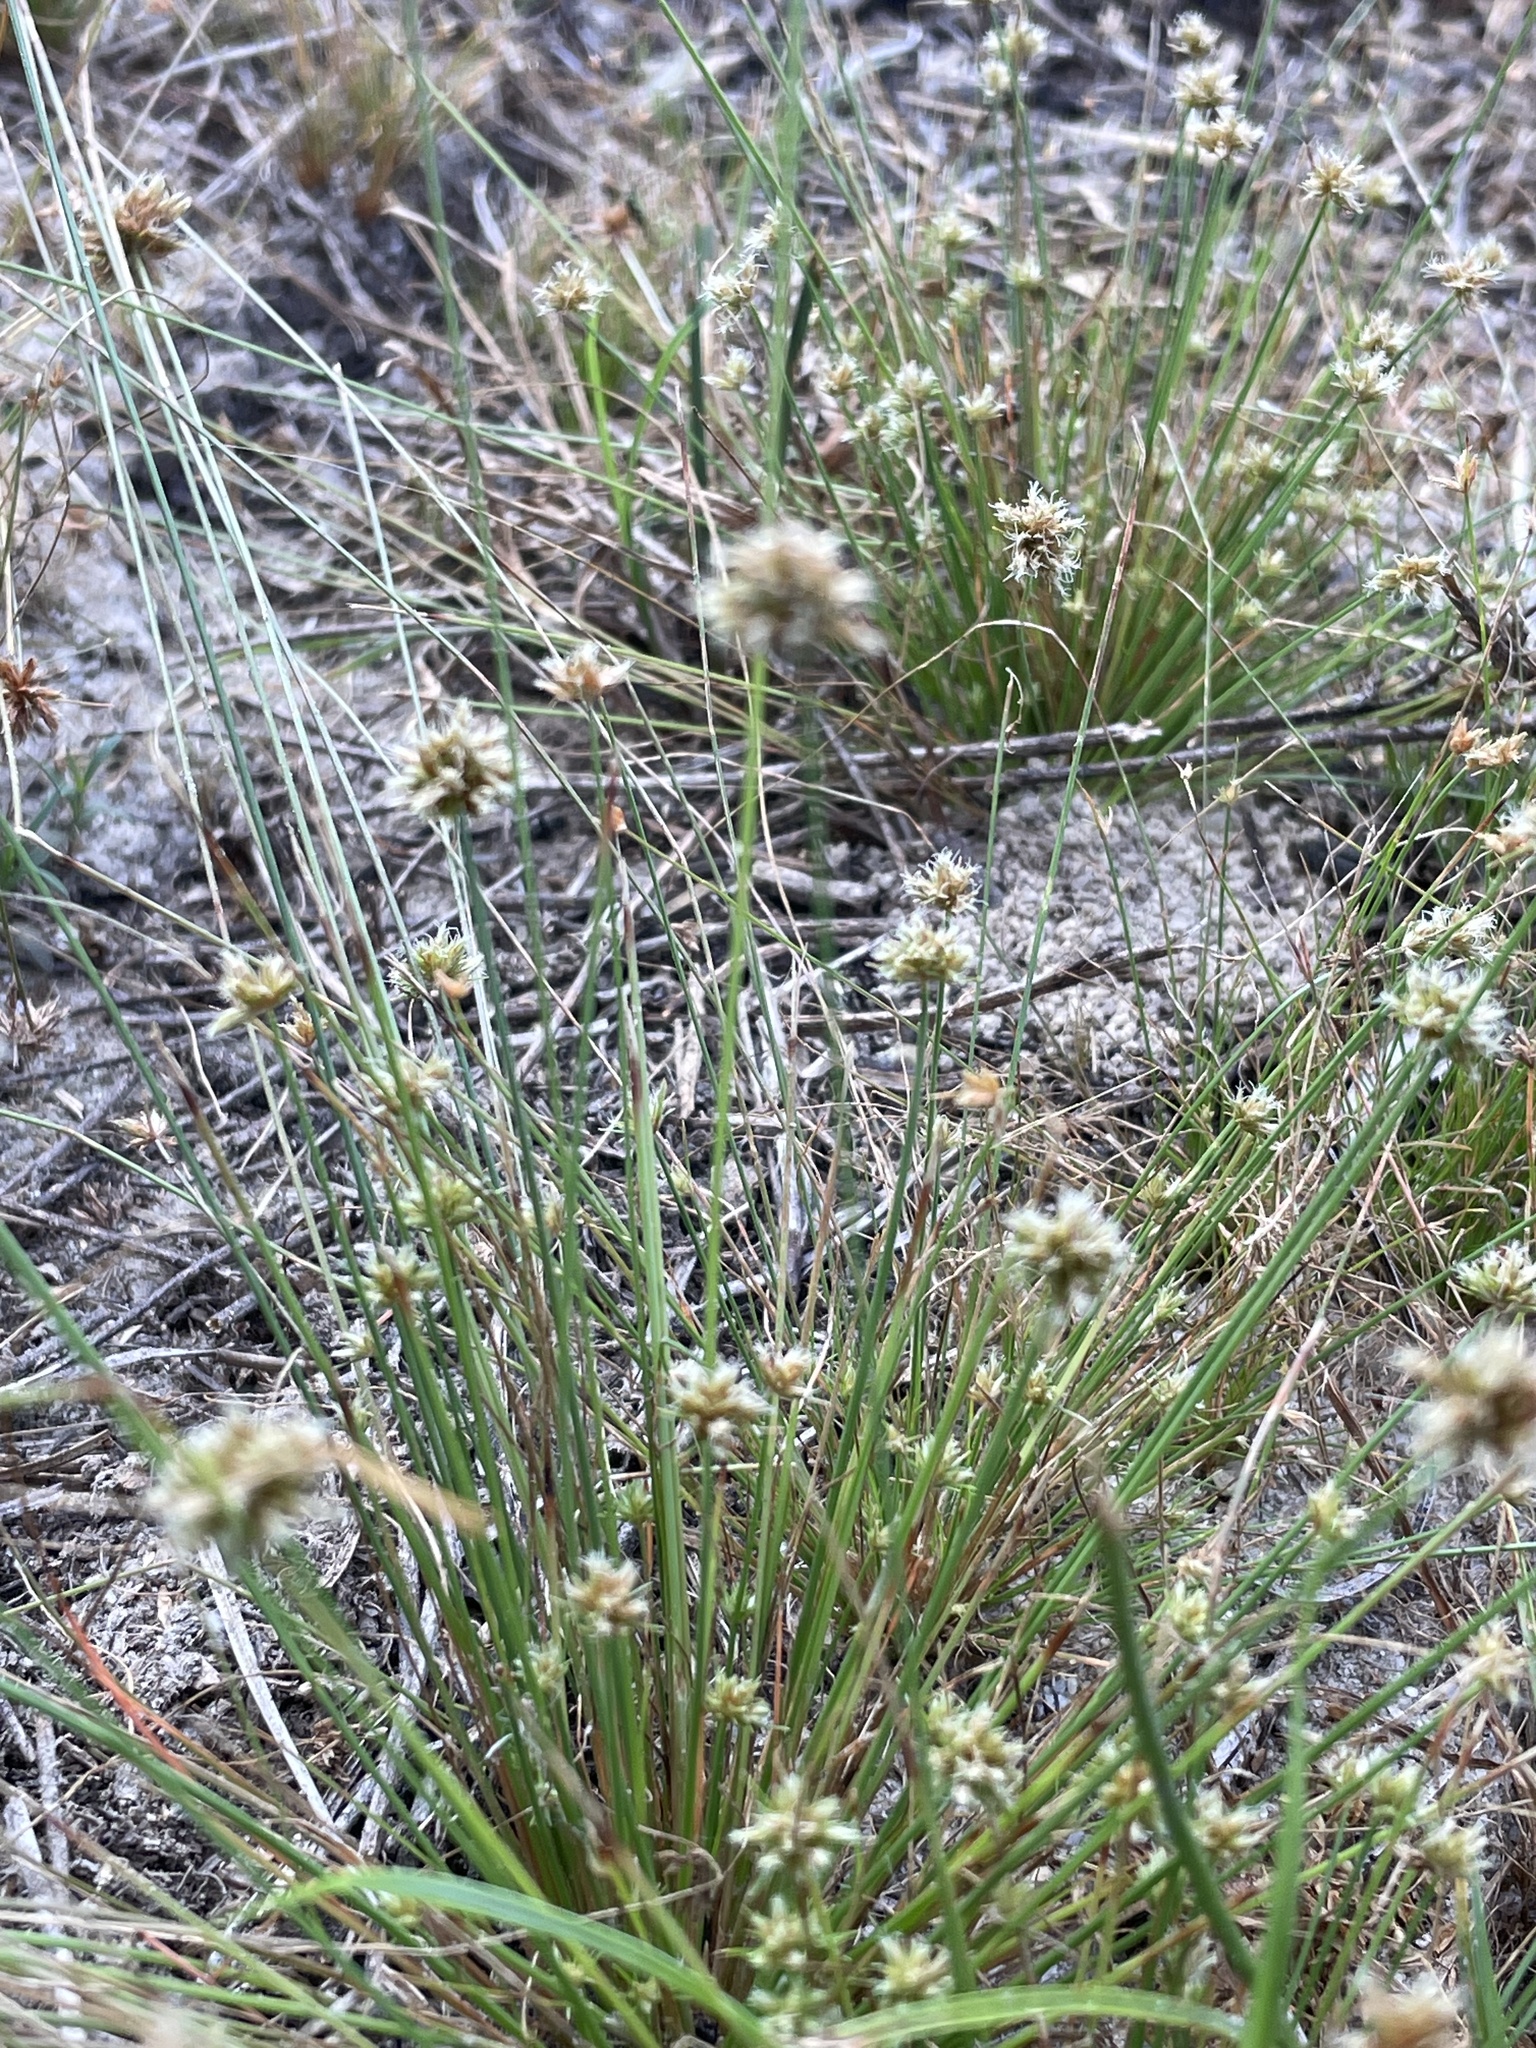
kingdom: Plantae
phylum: Tracheophyta
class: Liliopsida
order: Poales
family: Cyperaceae
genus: Bulbostylis
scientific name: Bulbostylis barbata
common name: Watergrass
